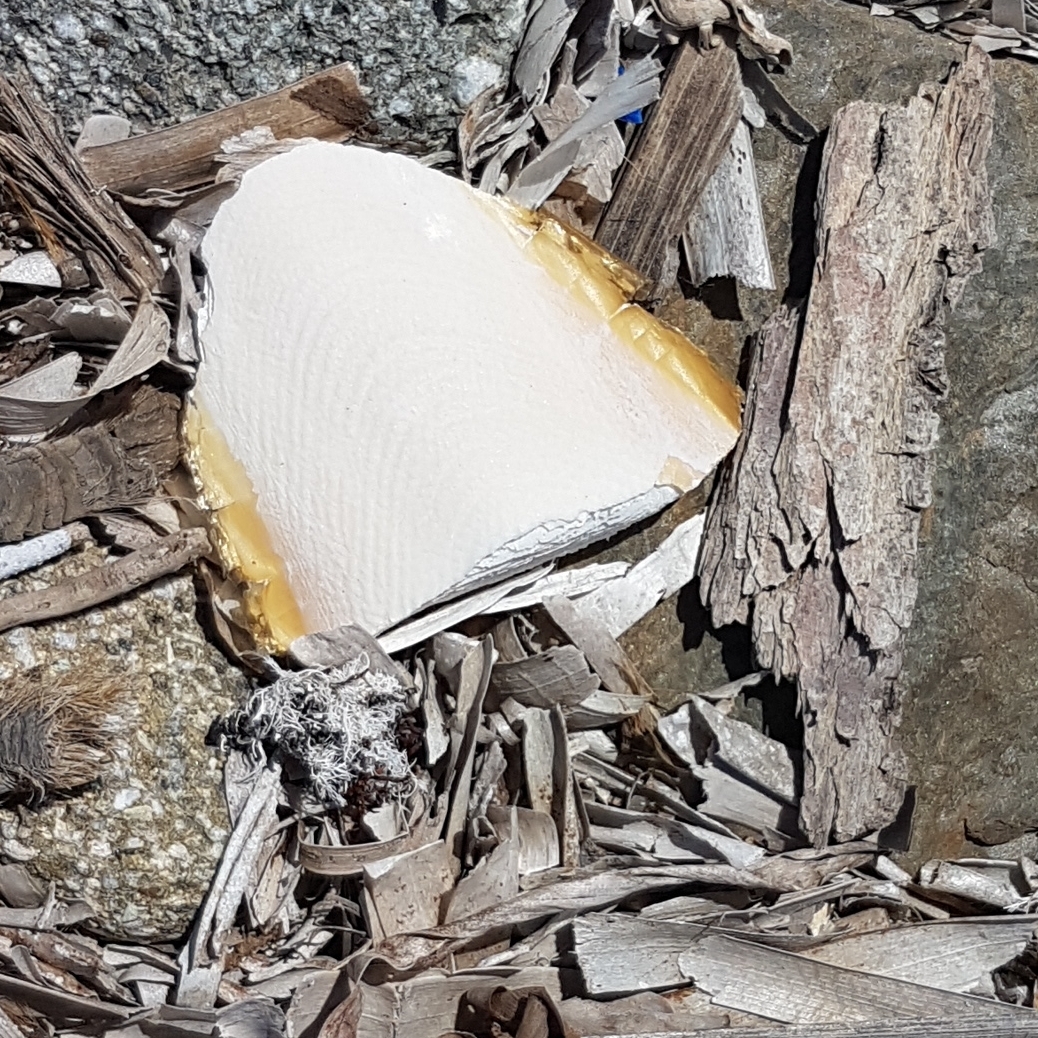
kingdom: Animalia
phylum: Mollusca
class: Cephalopoda
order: Sepiida
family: Sepiidae
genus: Sepia
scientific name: Sepia officinalis
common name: Common cuttlefish
